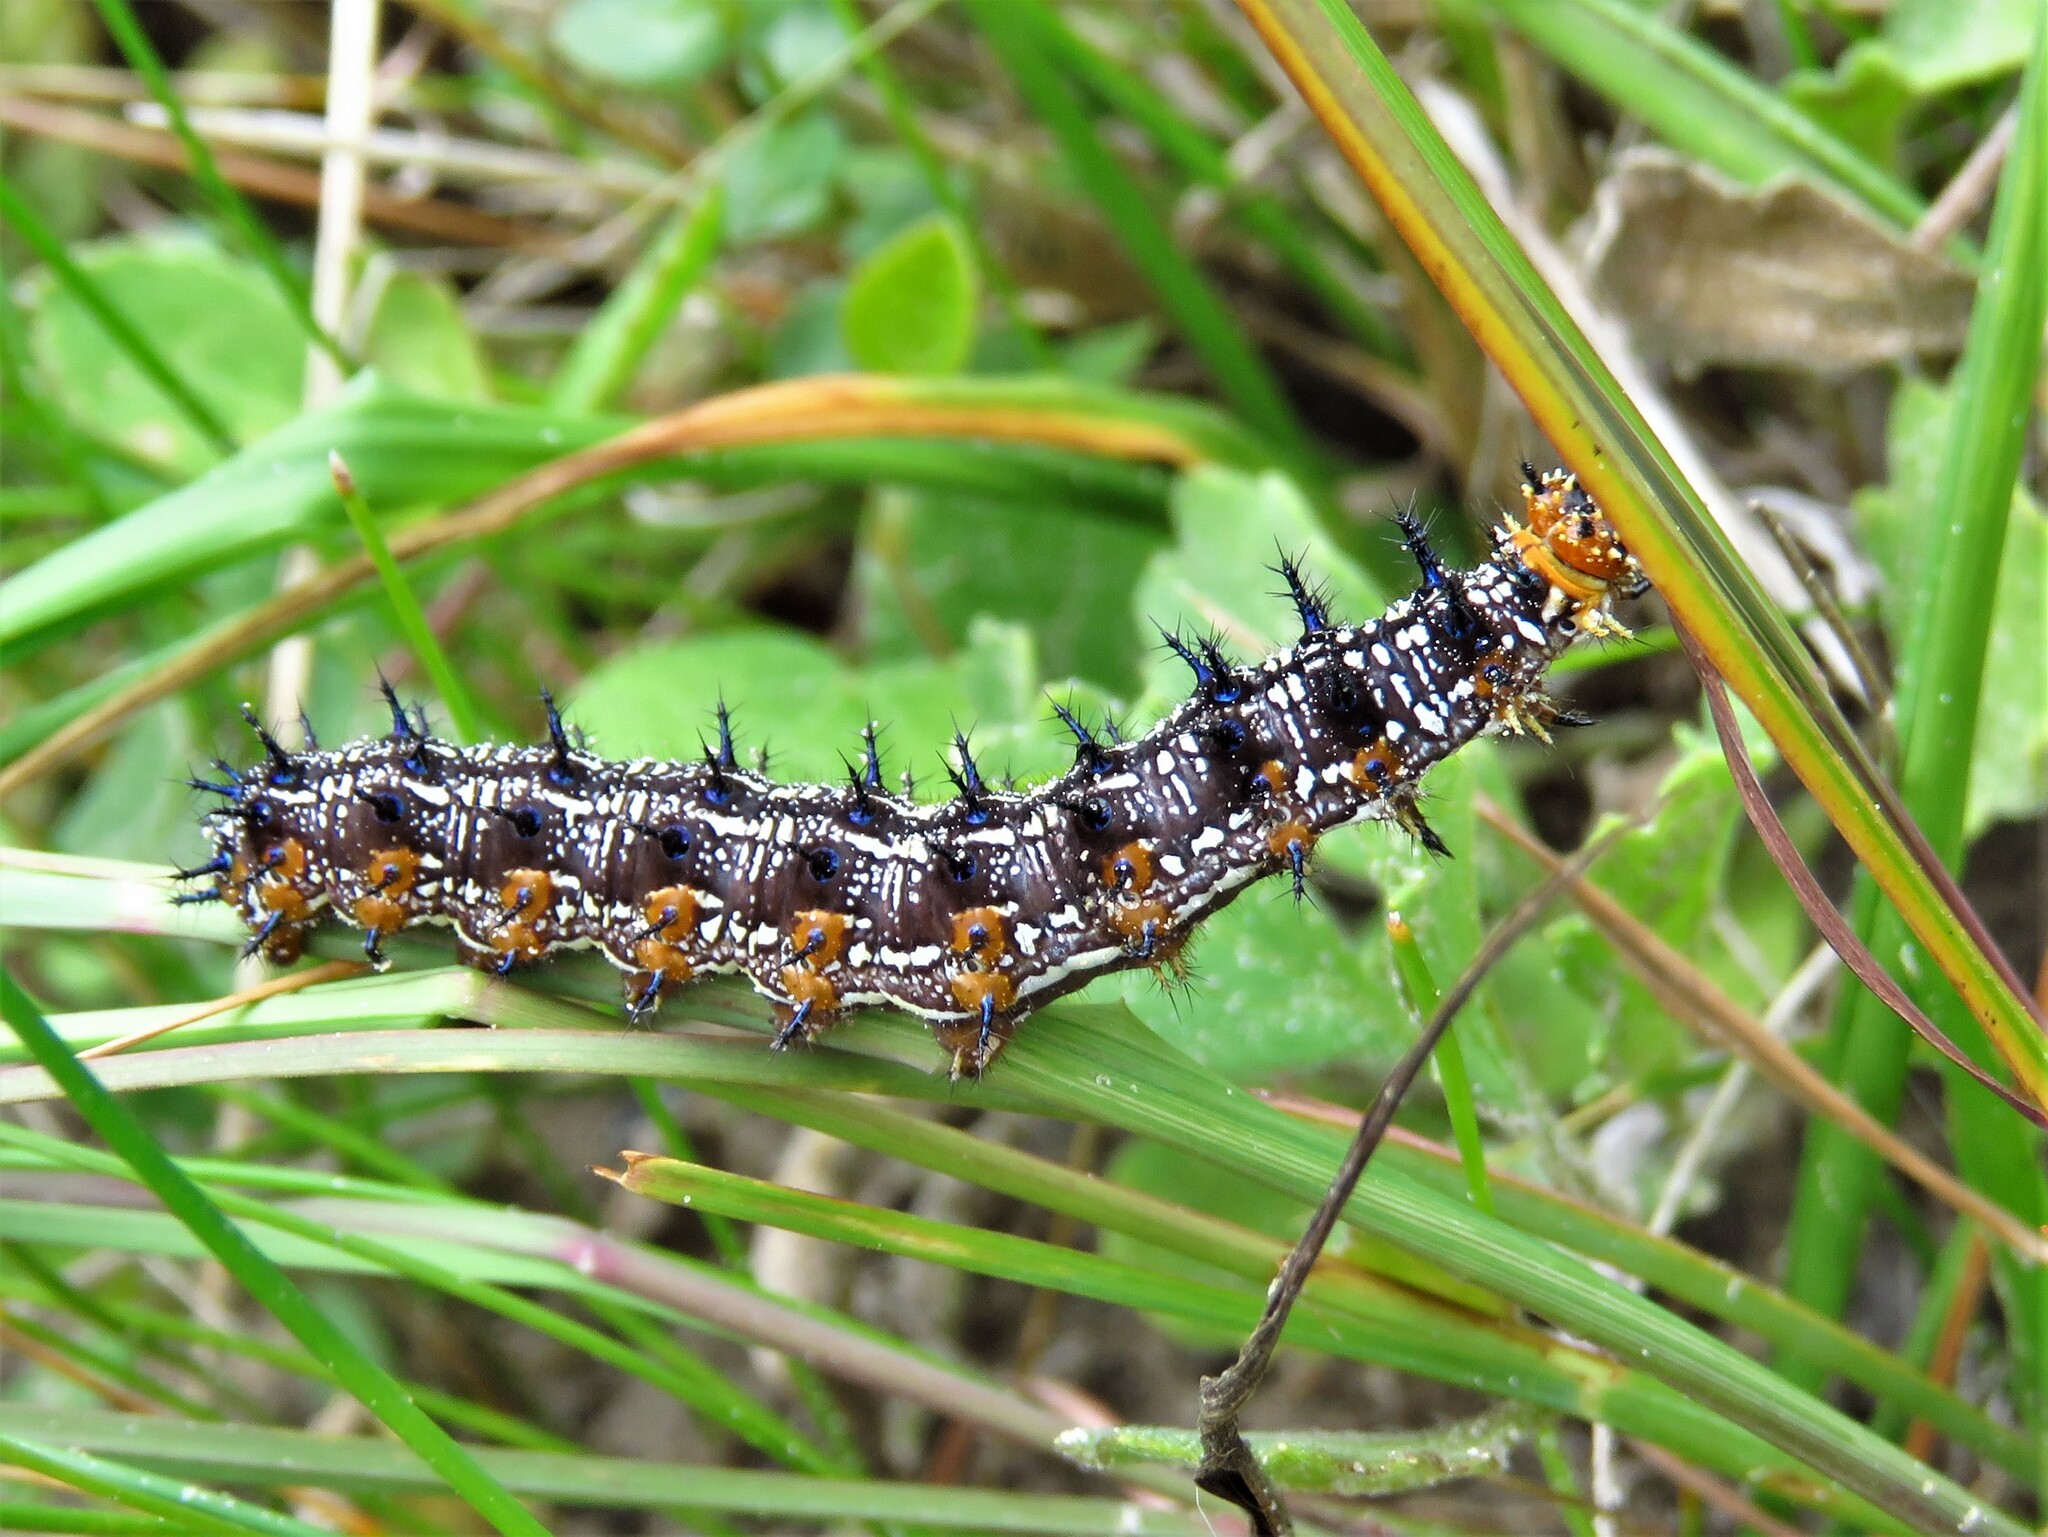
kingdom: Animalia
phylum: Arthropoda
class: Insecta
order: Lepidoptera
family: Nymphalidae
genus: Junonia
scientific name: Junonia coenia
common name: Common buckeye
